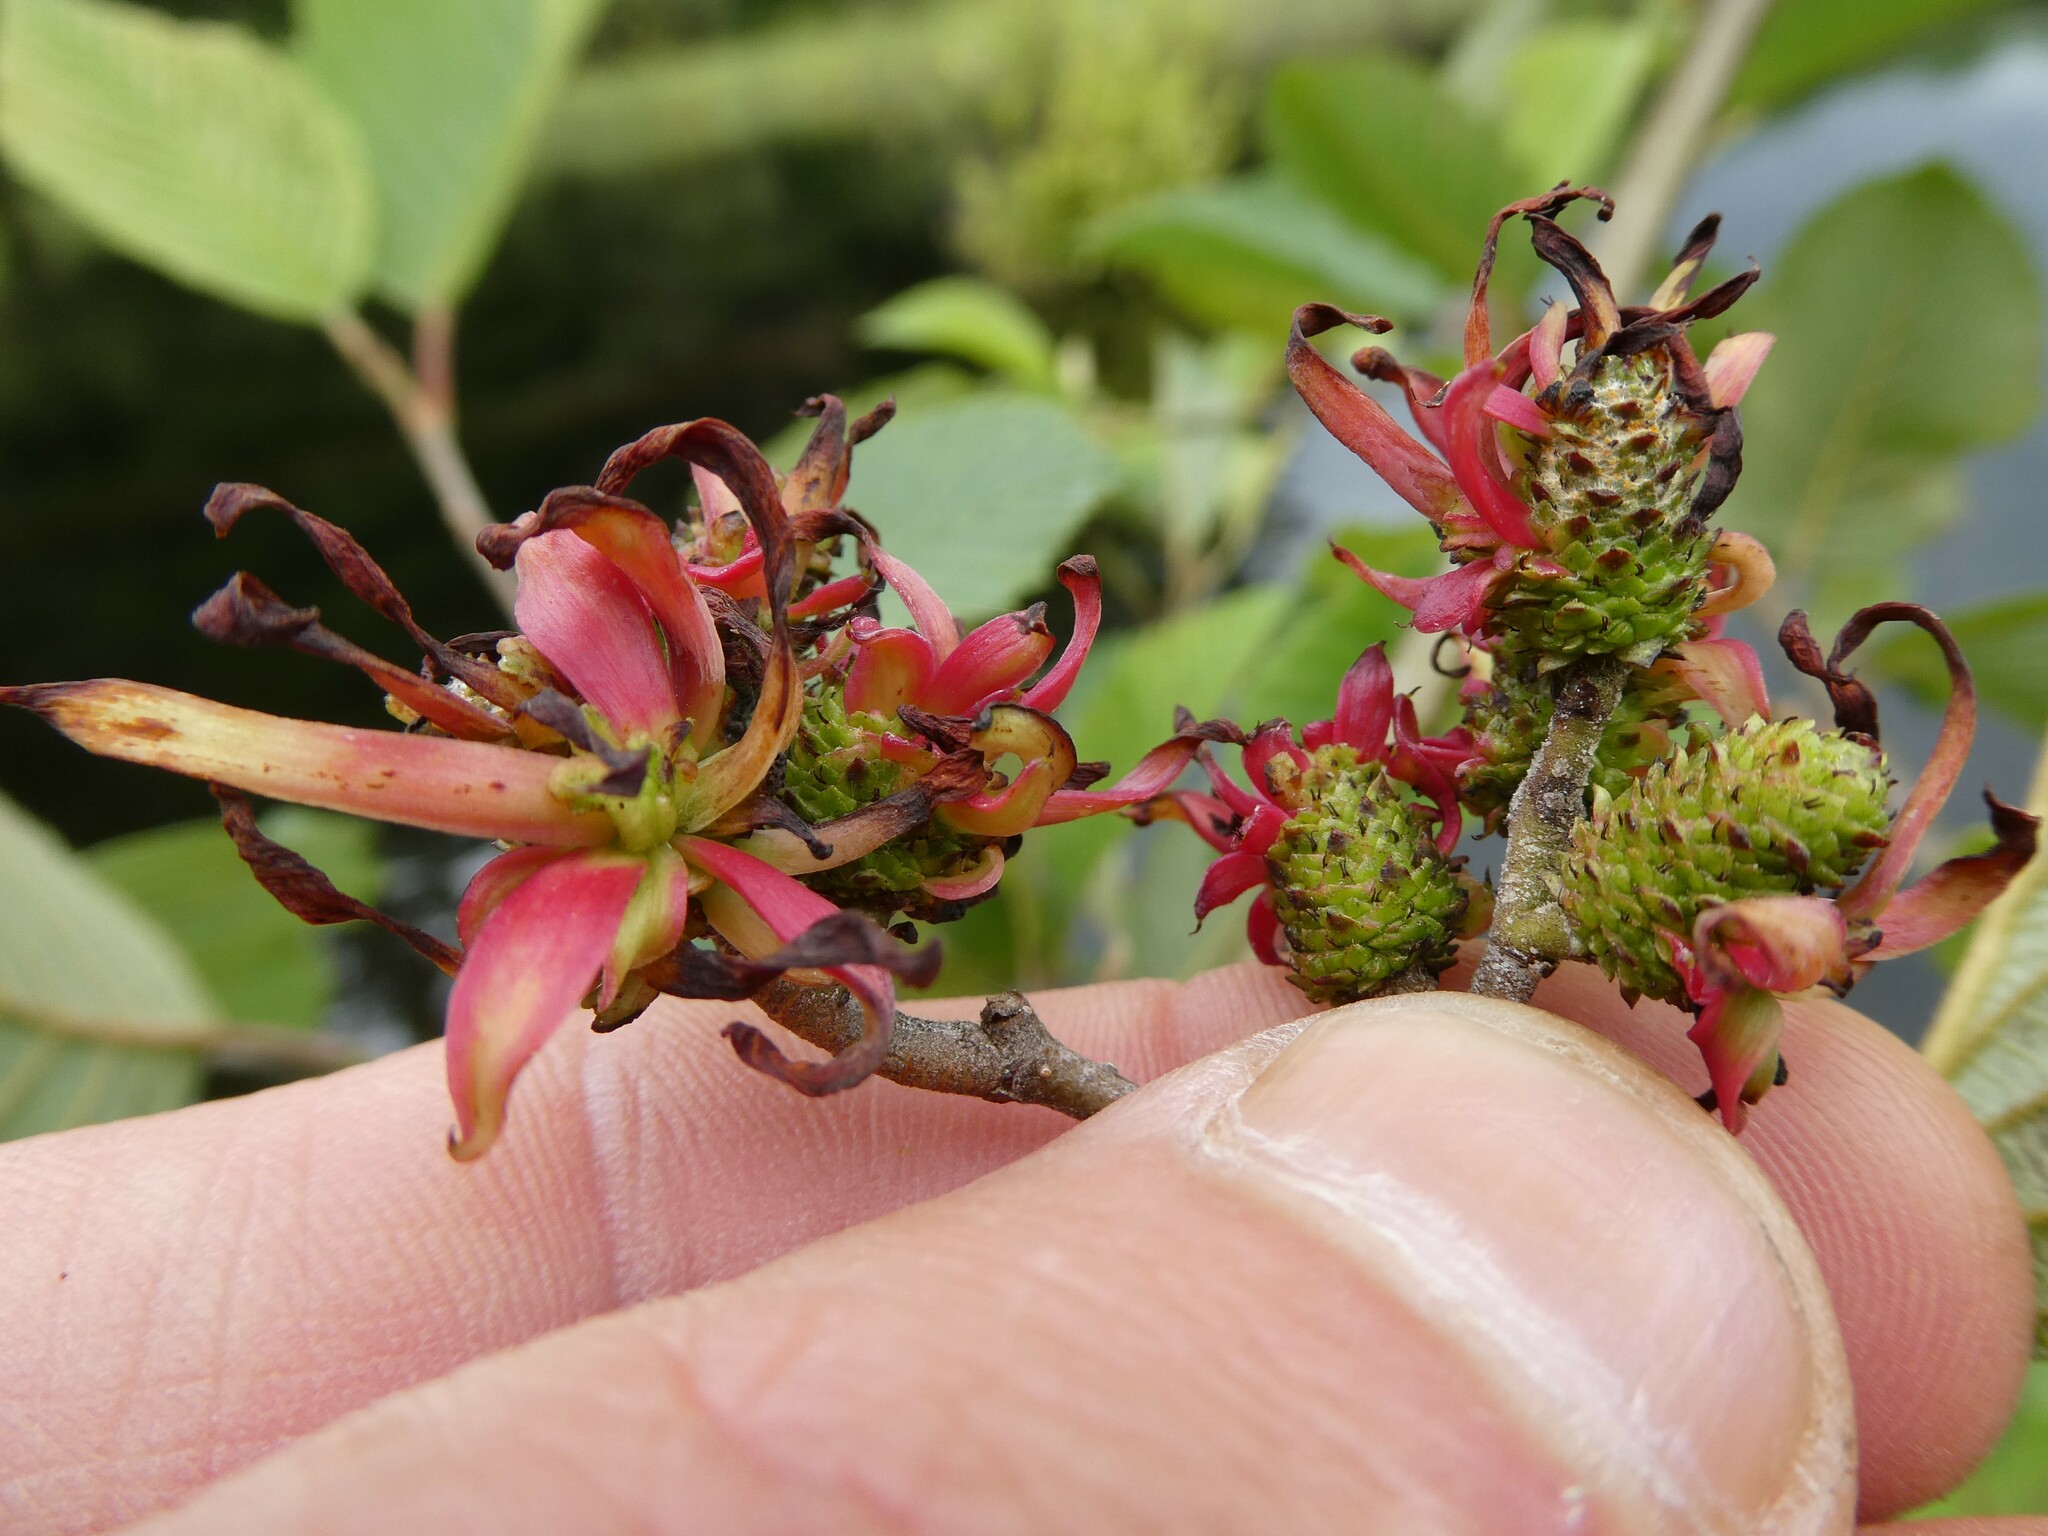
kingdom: Fungi
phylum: Ascomycota
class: Taphrinomycetes
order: Taphrinales
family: Taphrinaceae
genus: Taphrina
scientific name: Taphrina robinsoniana
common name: Eastern american alder tongue gall fungus
